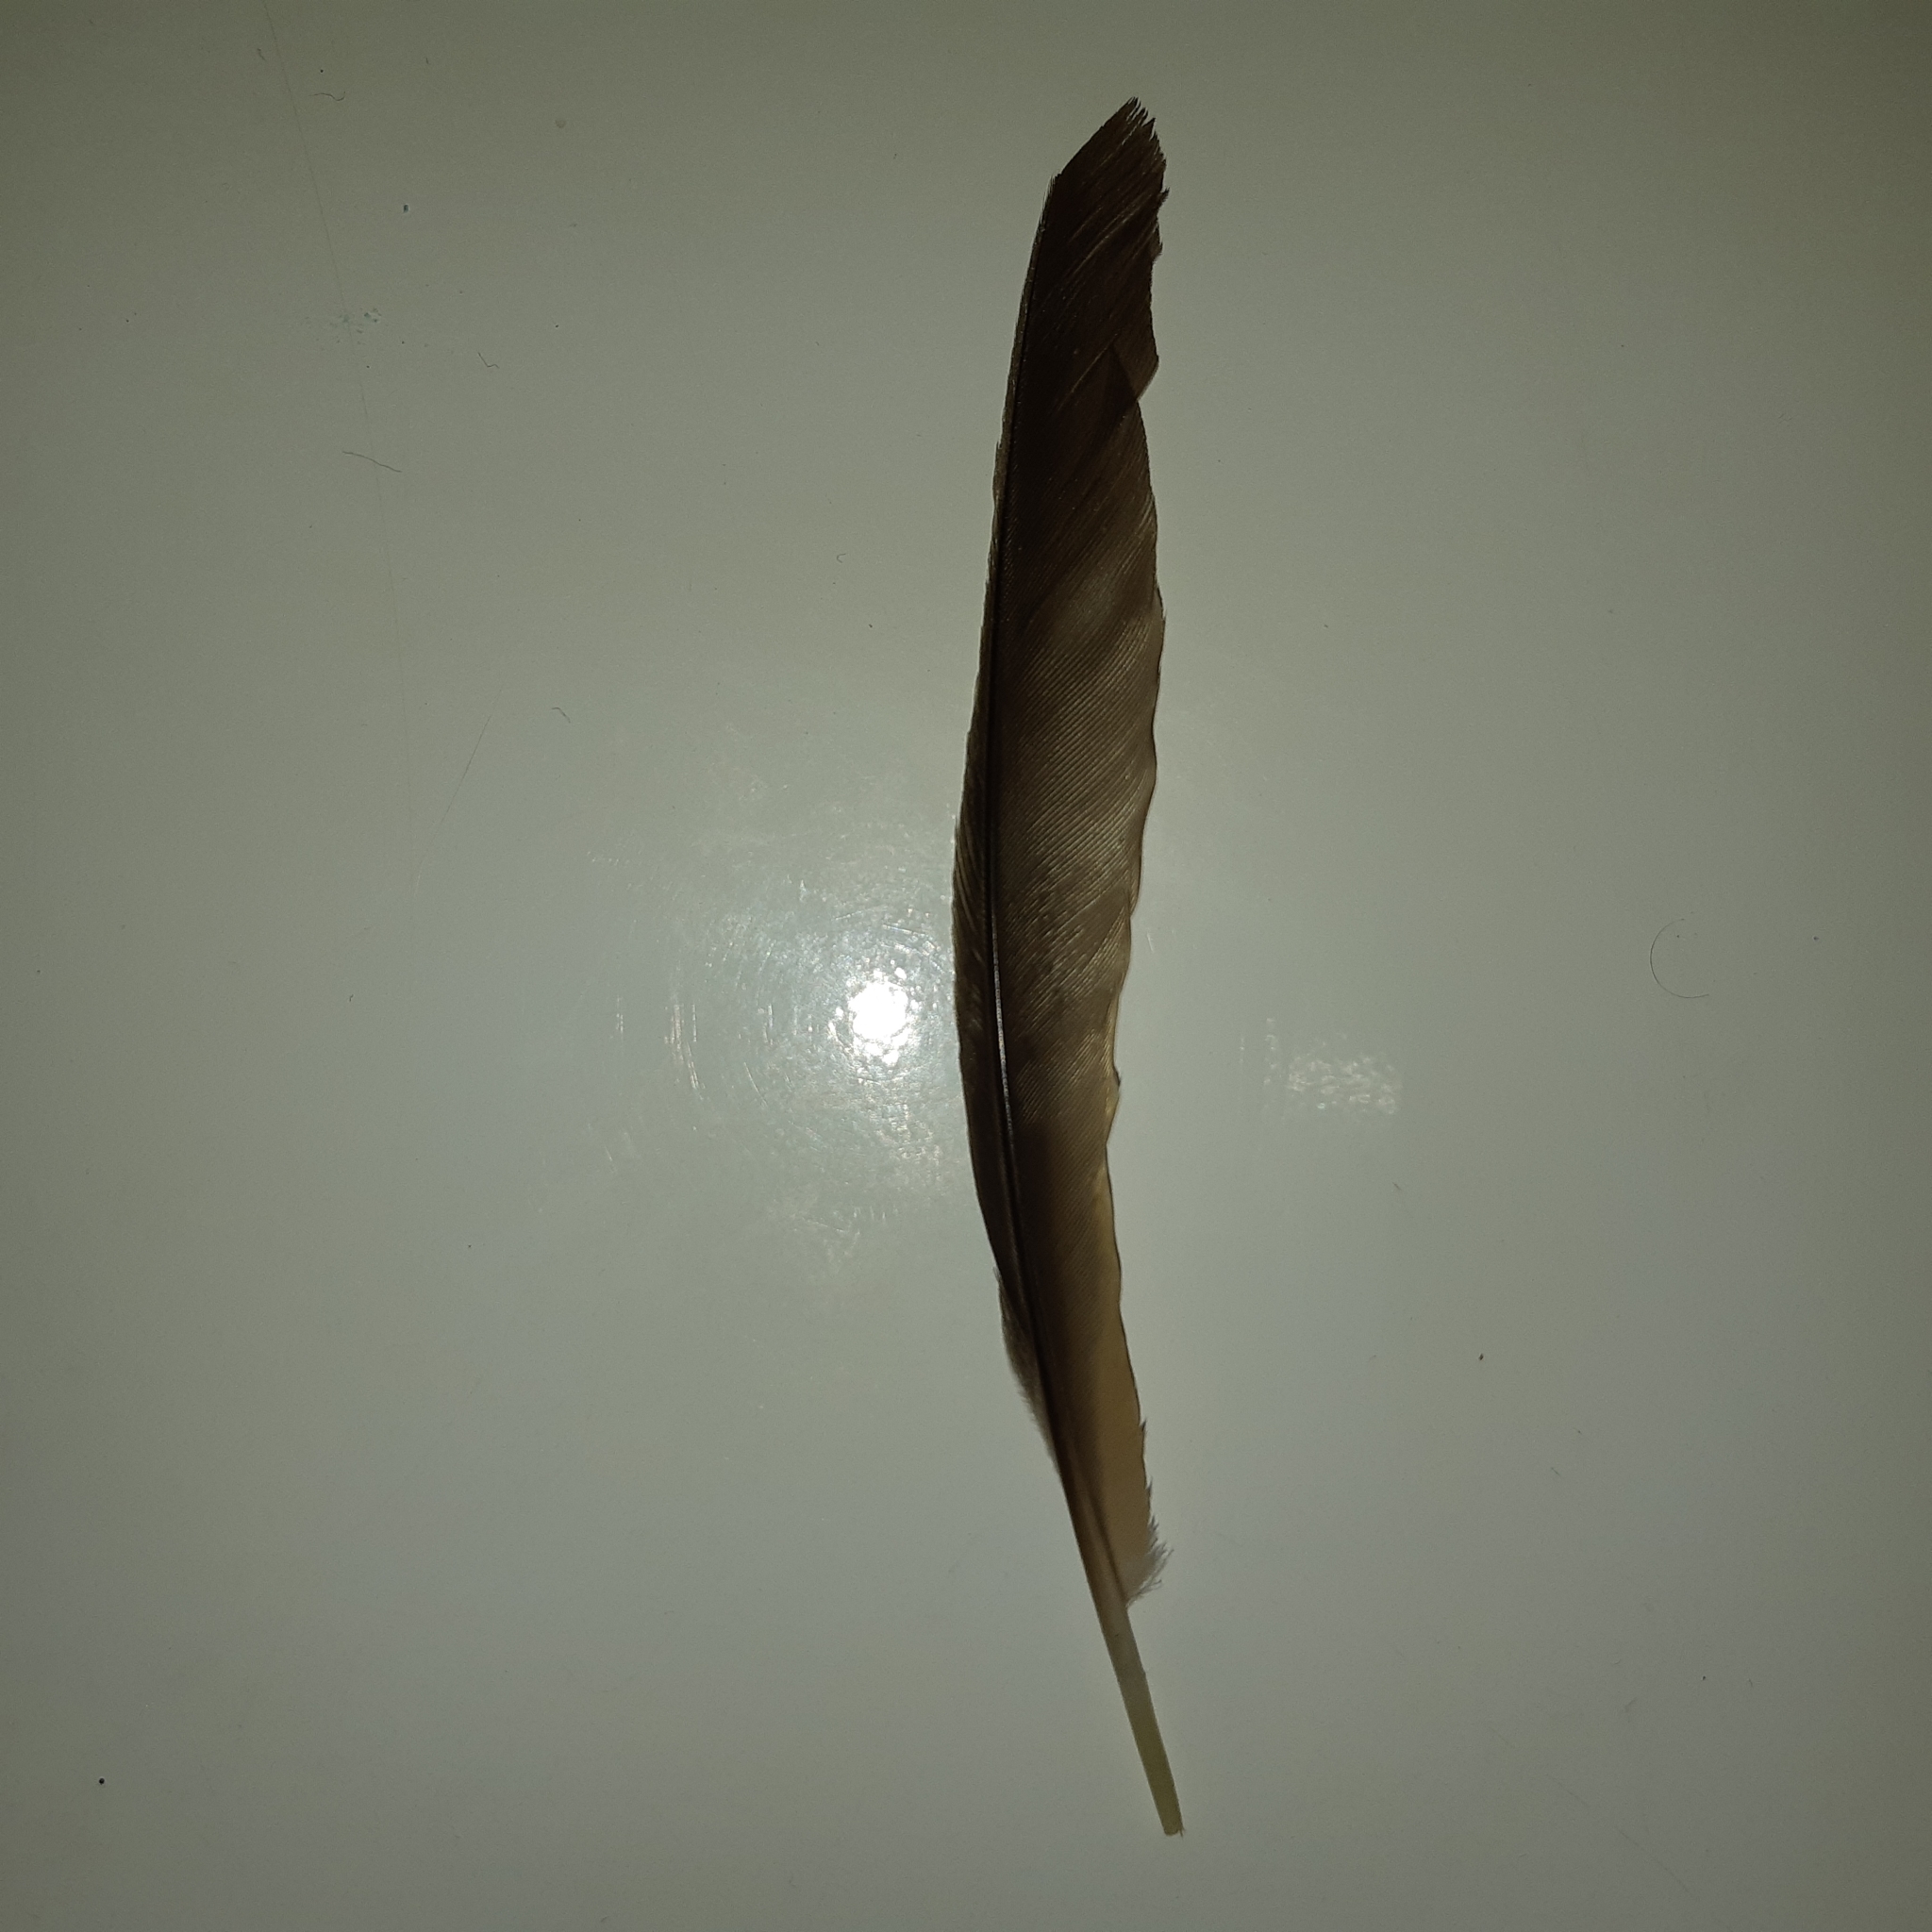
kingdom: Animalia
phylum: Chordata
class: Aves
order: Passeriformes
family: Turdidae
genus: Turdus
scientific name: Turdus grayi
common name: Clay-colored thrush
